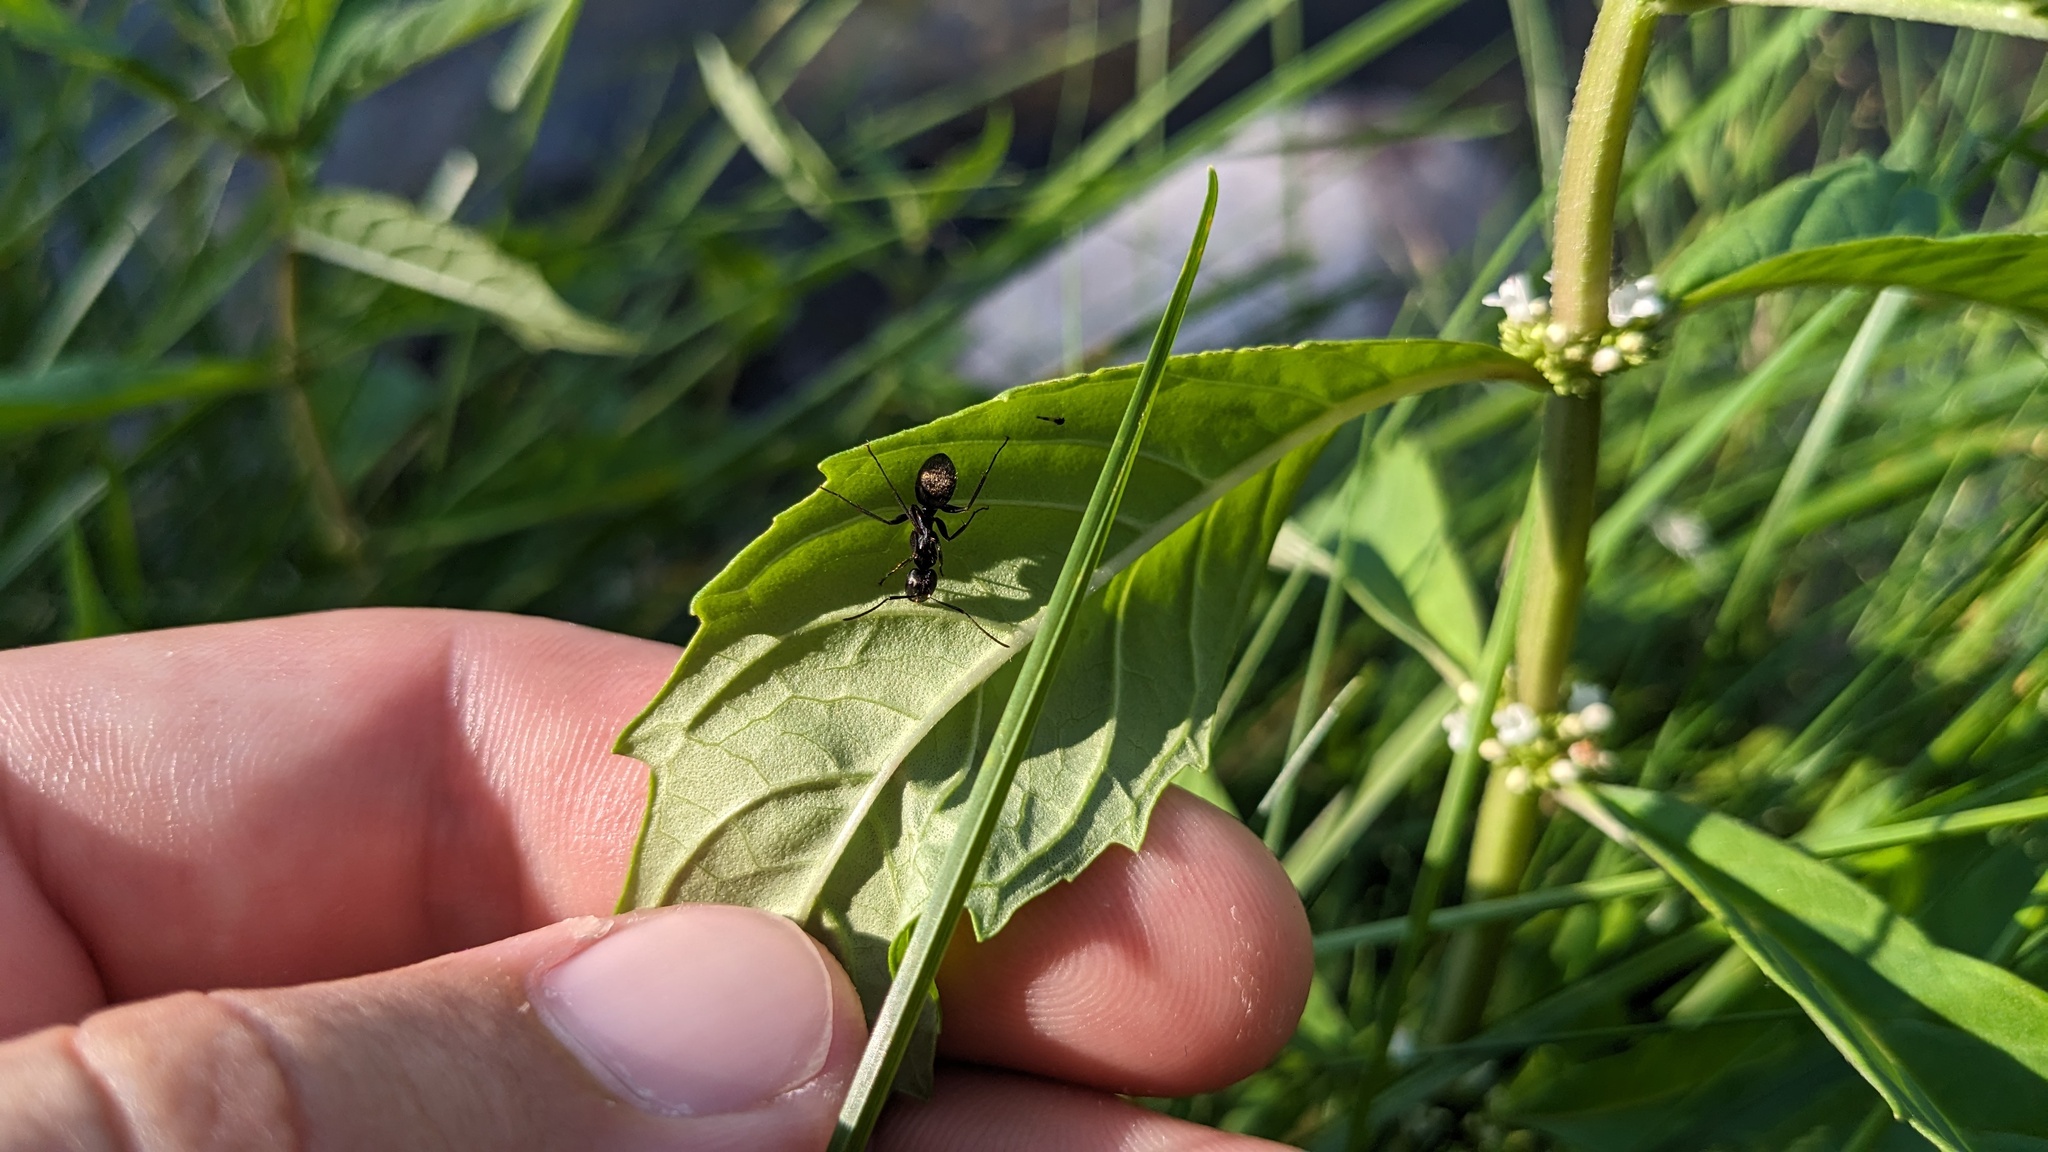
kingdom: Animalia
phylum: Arthropoda
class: Insecta
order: Hymenoptera
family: Formicidae
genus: Camponotus
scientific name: Camponotus pennsylvanicus
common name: Black carpenter ant
